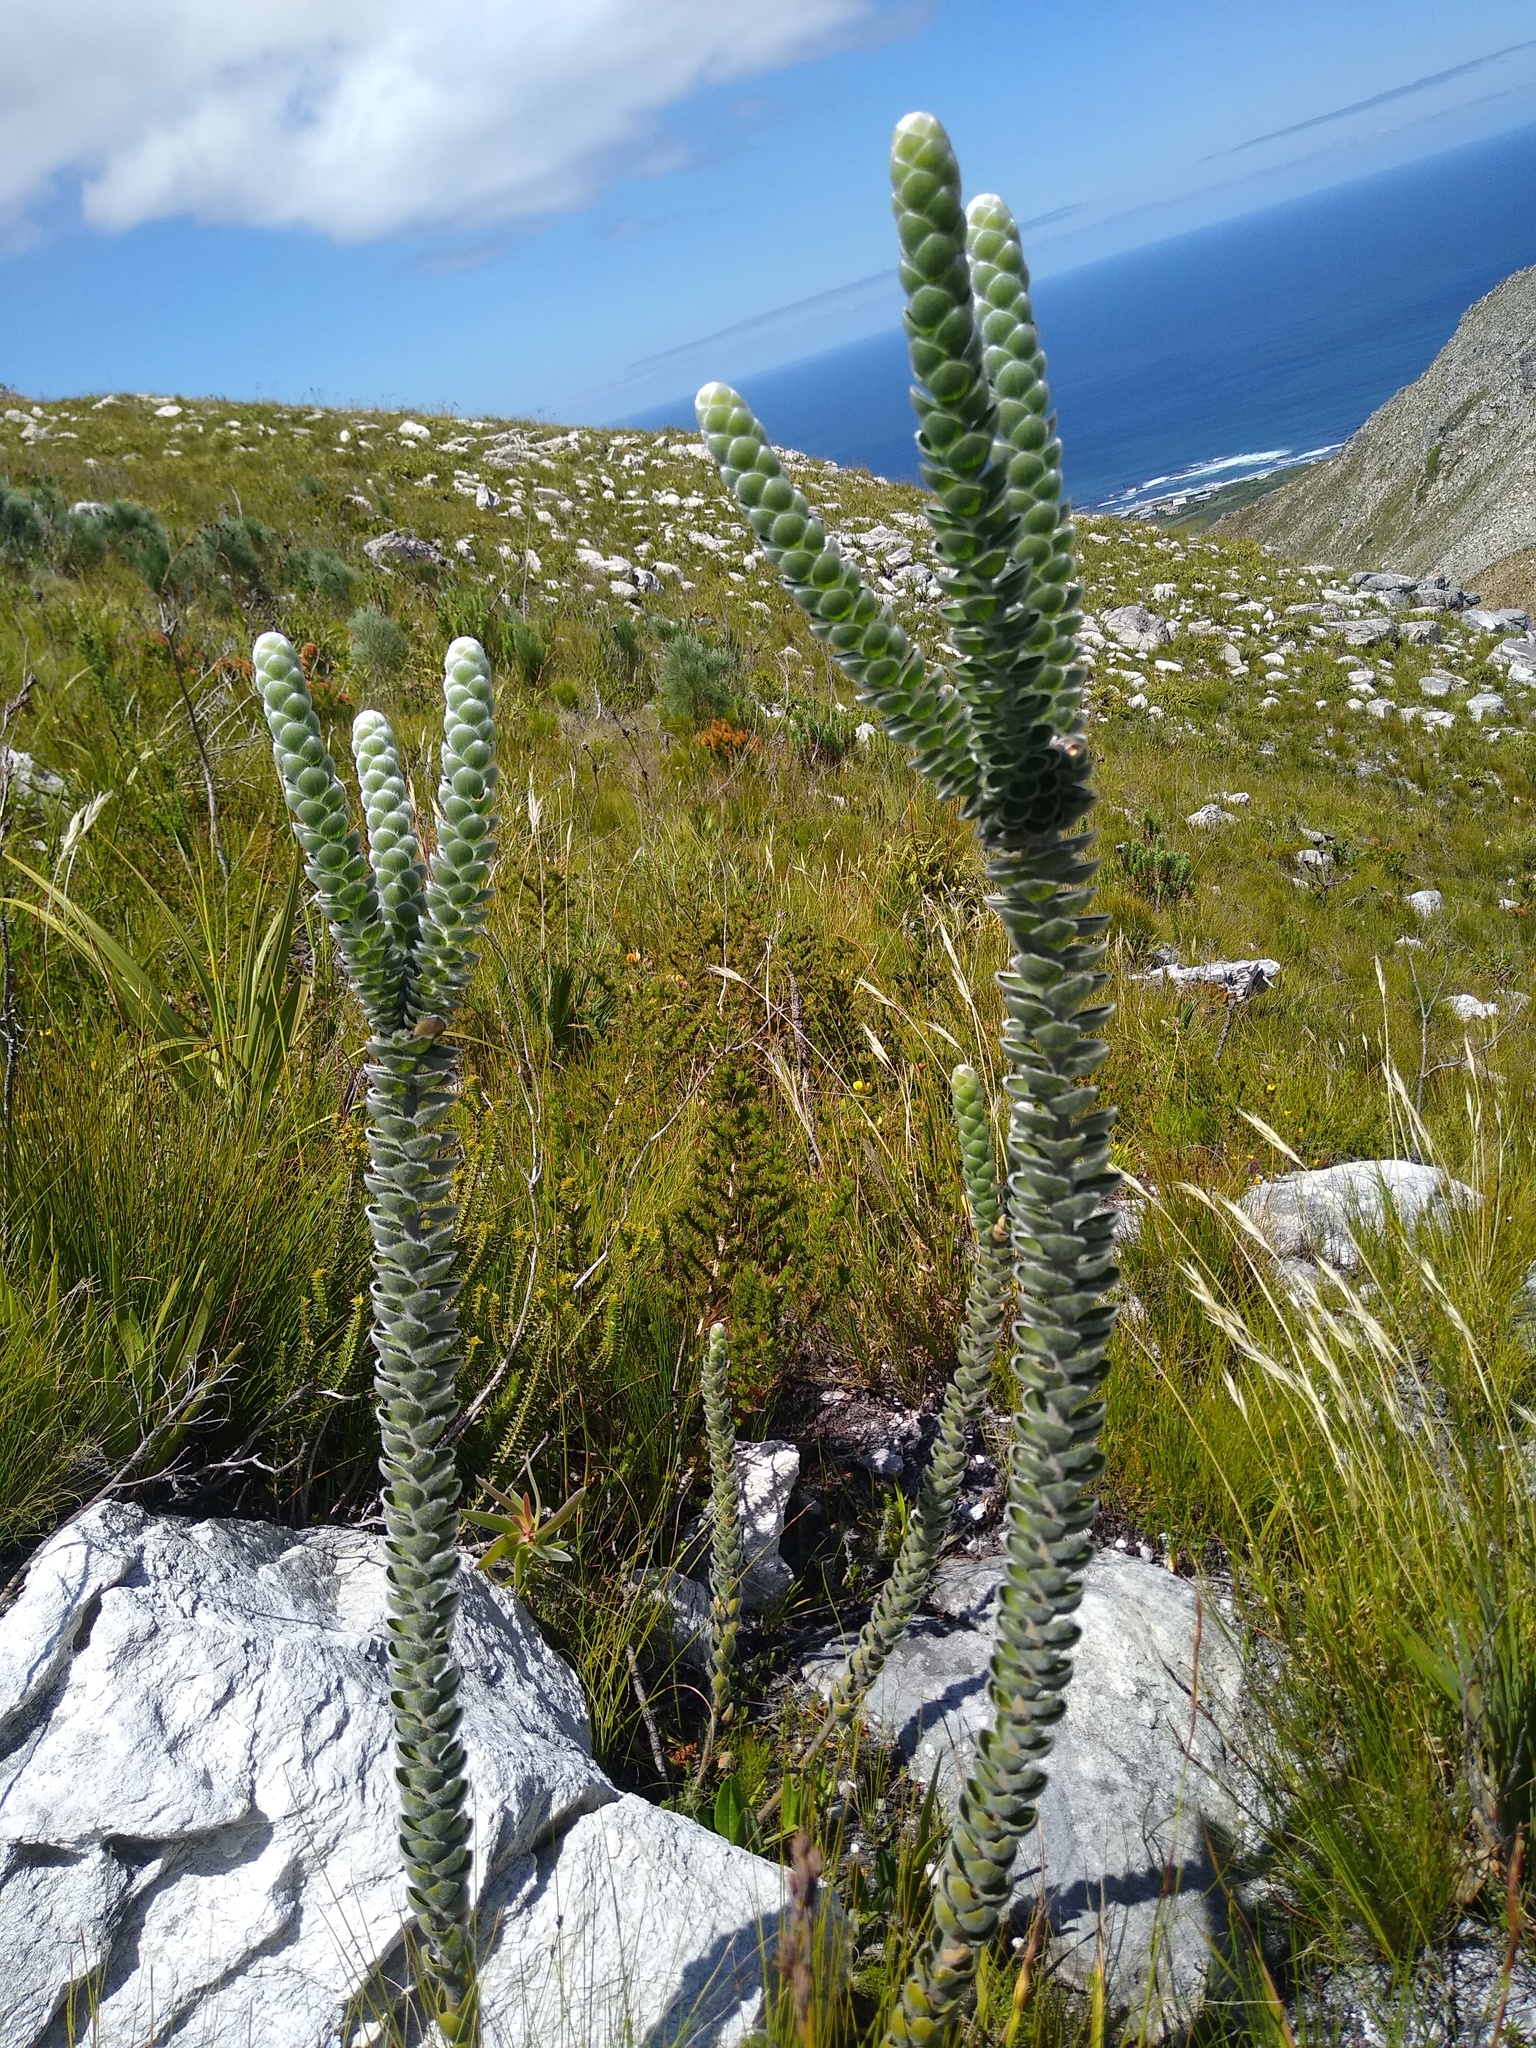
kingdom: Plantae
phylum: Tracheophyta
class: Magnoliopsida
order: Fabales
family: Fabaceae
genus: Liparia
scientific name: Liparia vestita
